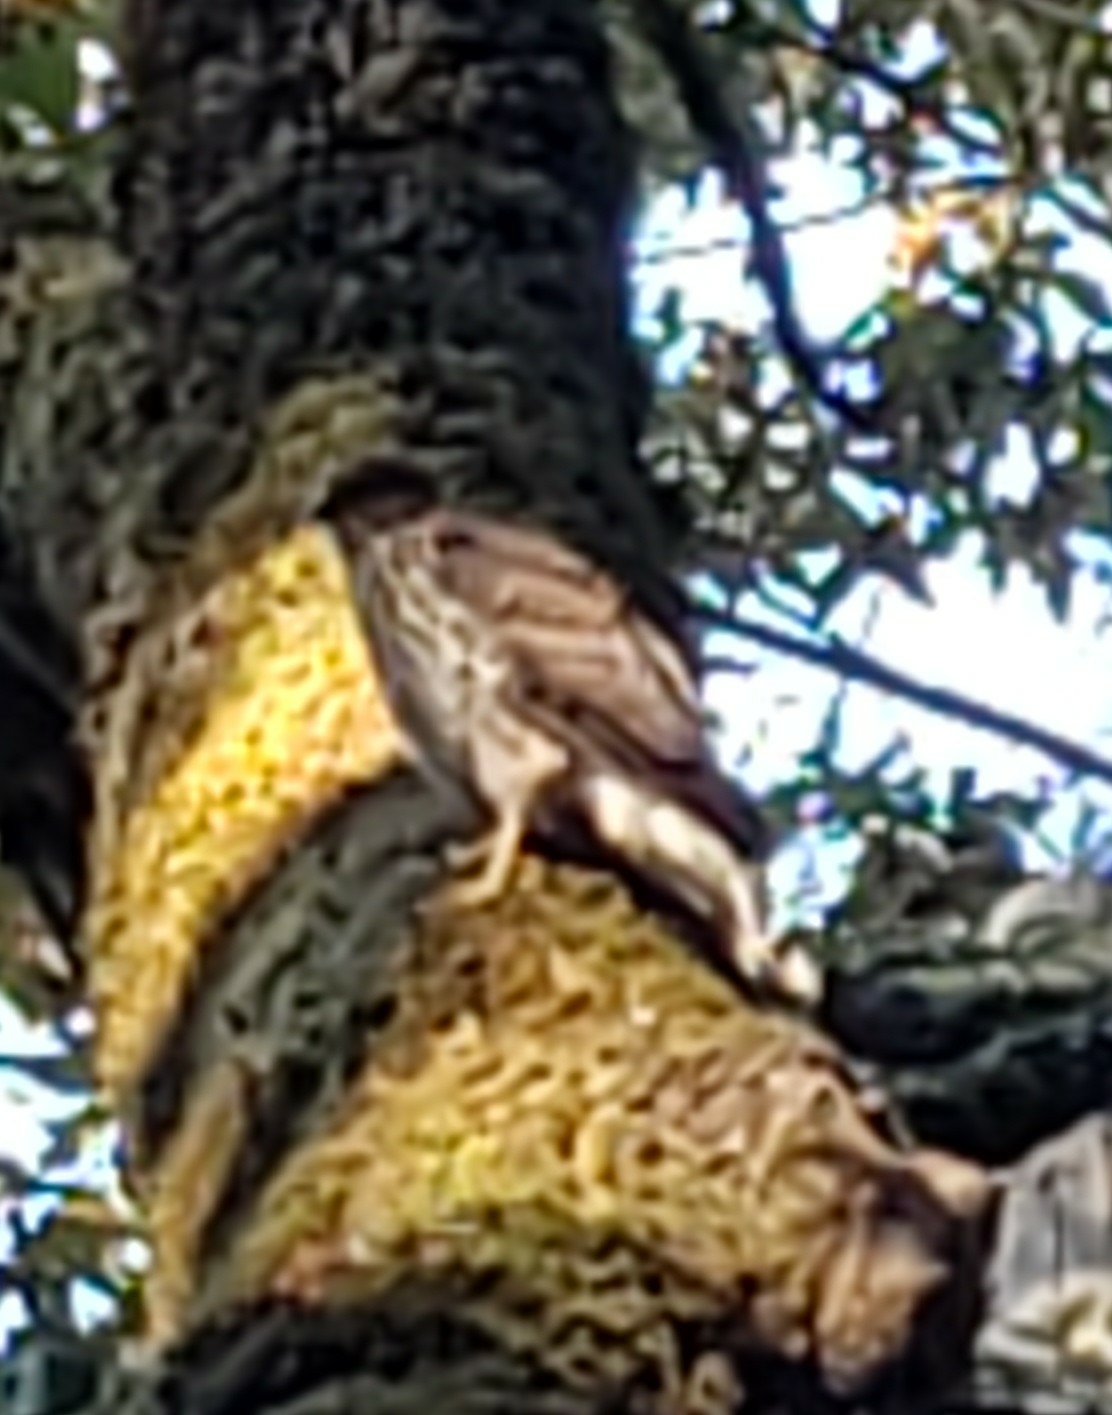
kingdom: Animalia
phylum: Chordata
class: Aves
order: Accipitriformes
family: Accipitridae
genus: Accipiter
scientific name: Accipiter
